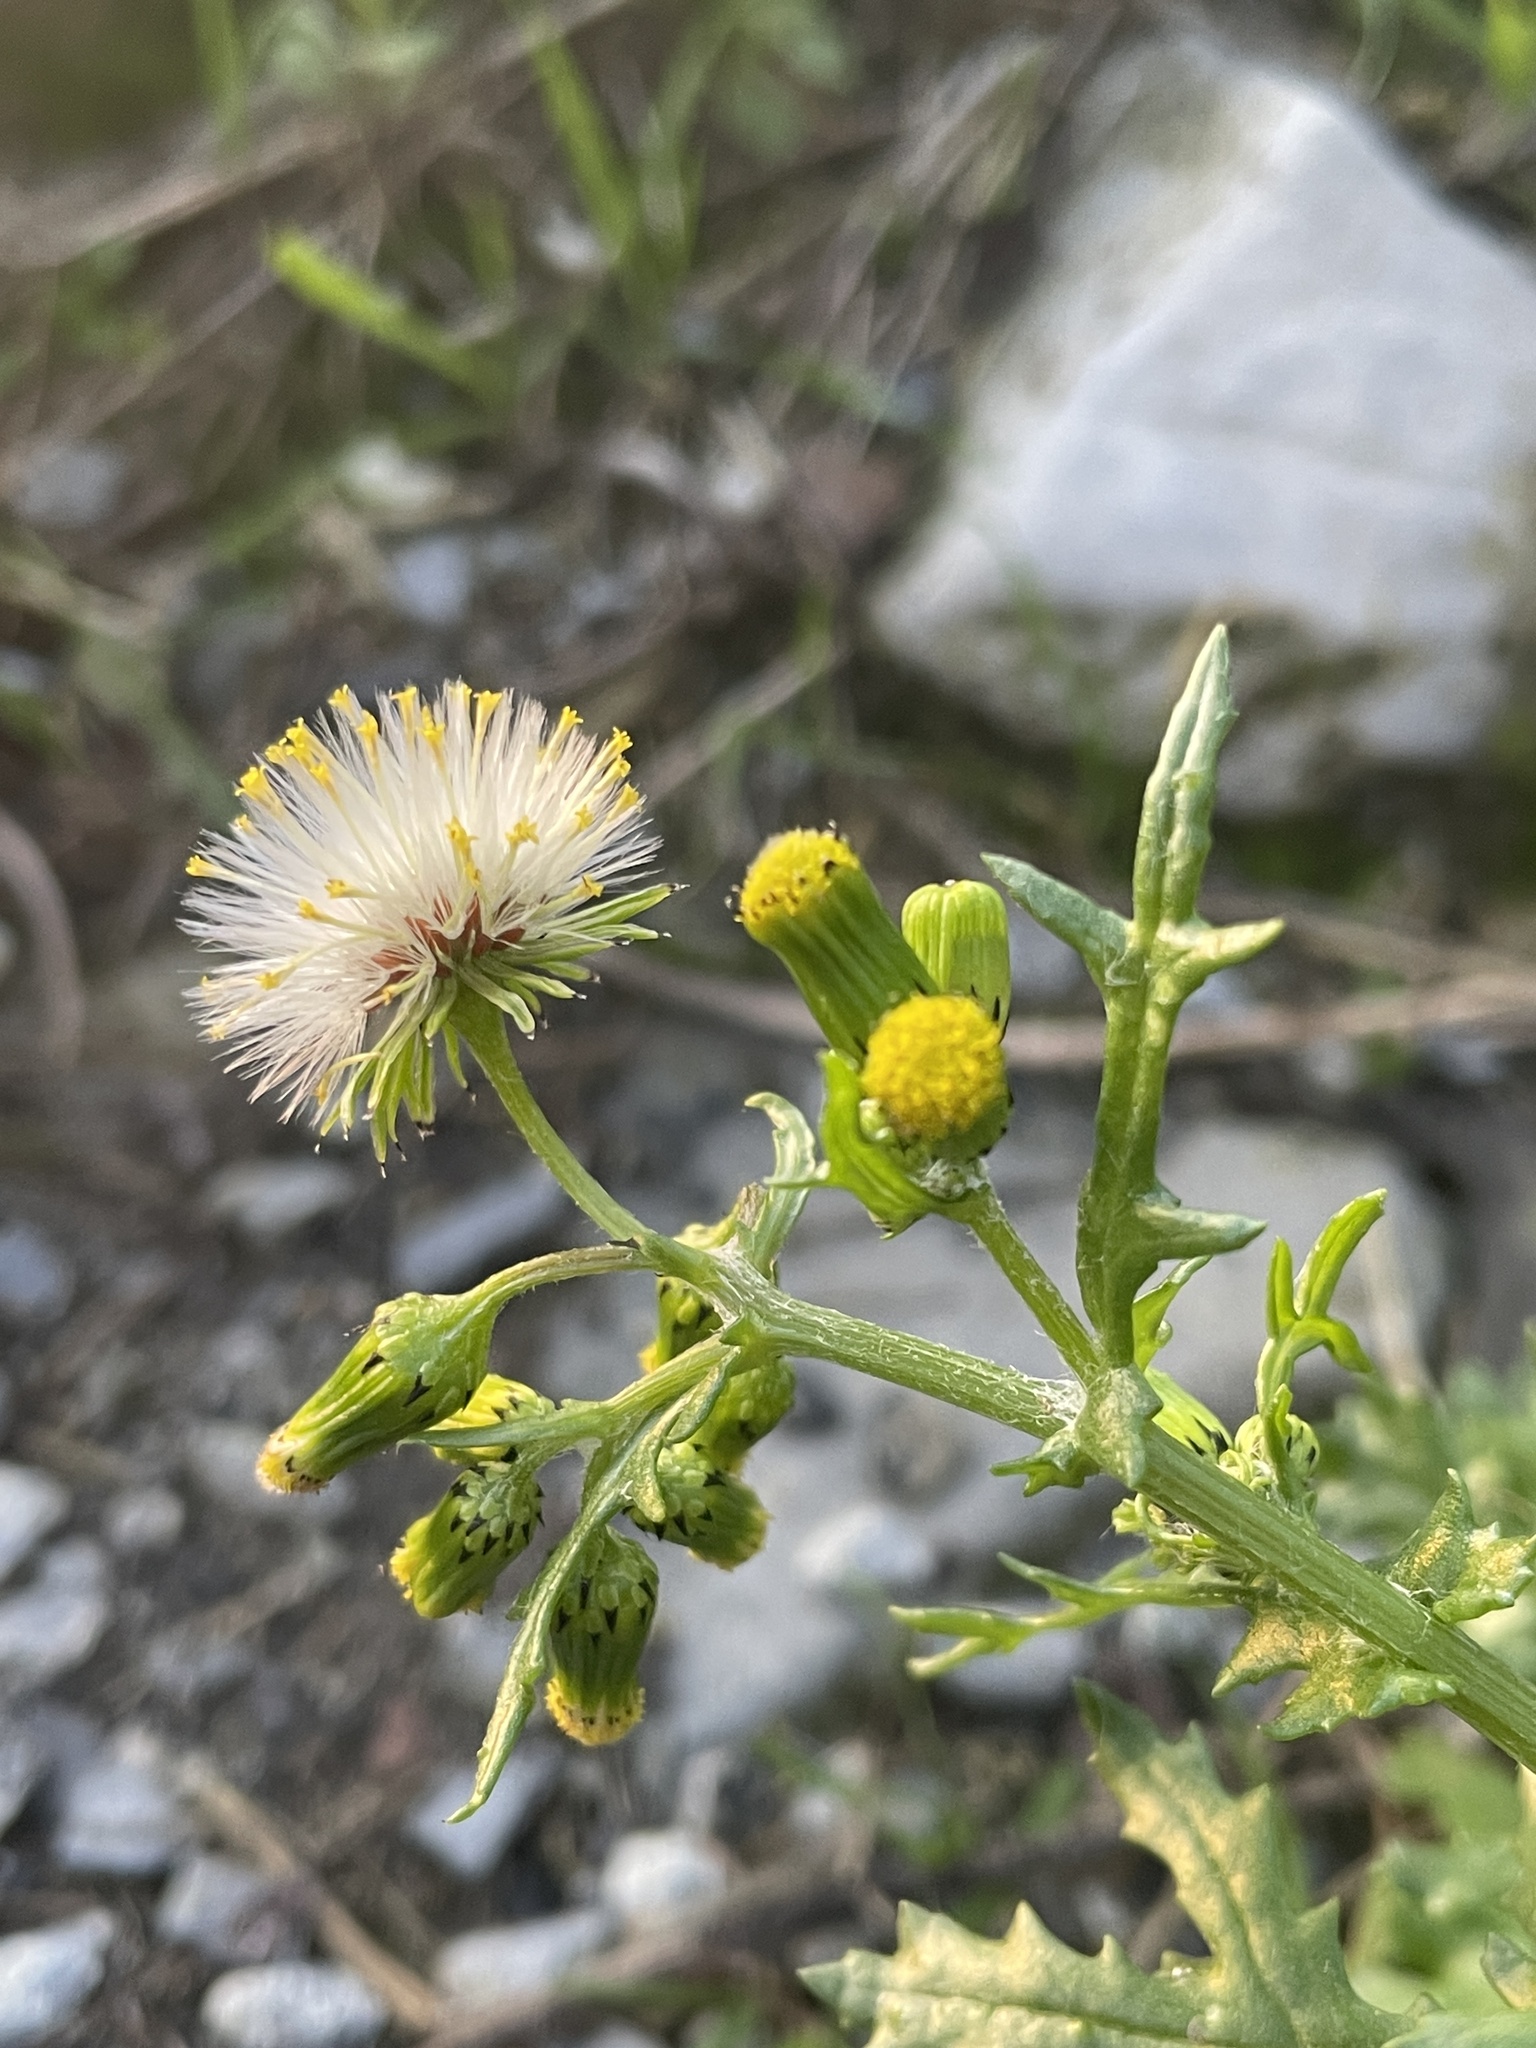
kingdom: Plantae
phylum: Tracheophyta
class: Magnoliopsida
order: Asterales
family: Asteraceae
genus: Senecio
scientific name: Senecio vulgaris
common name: Old-man-in-the-spring
